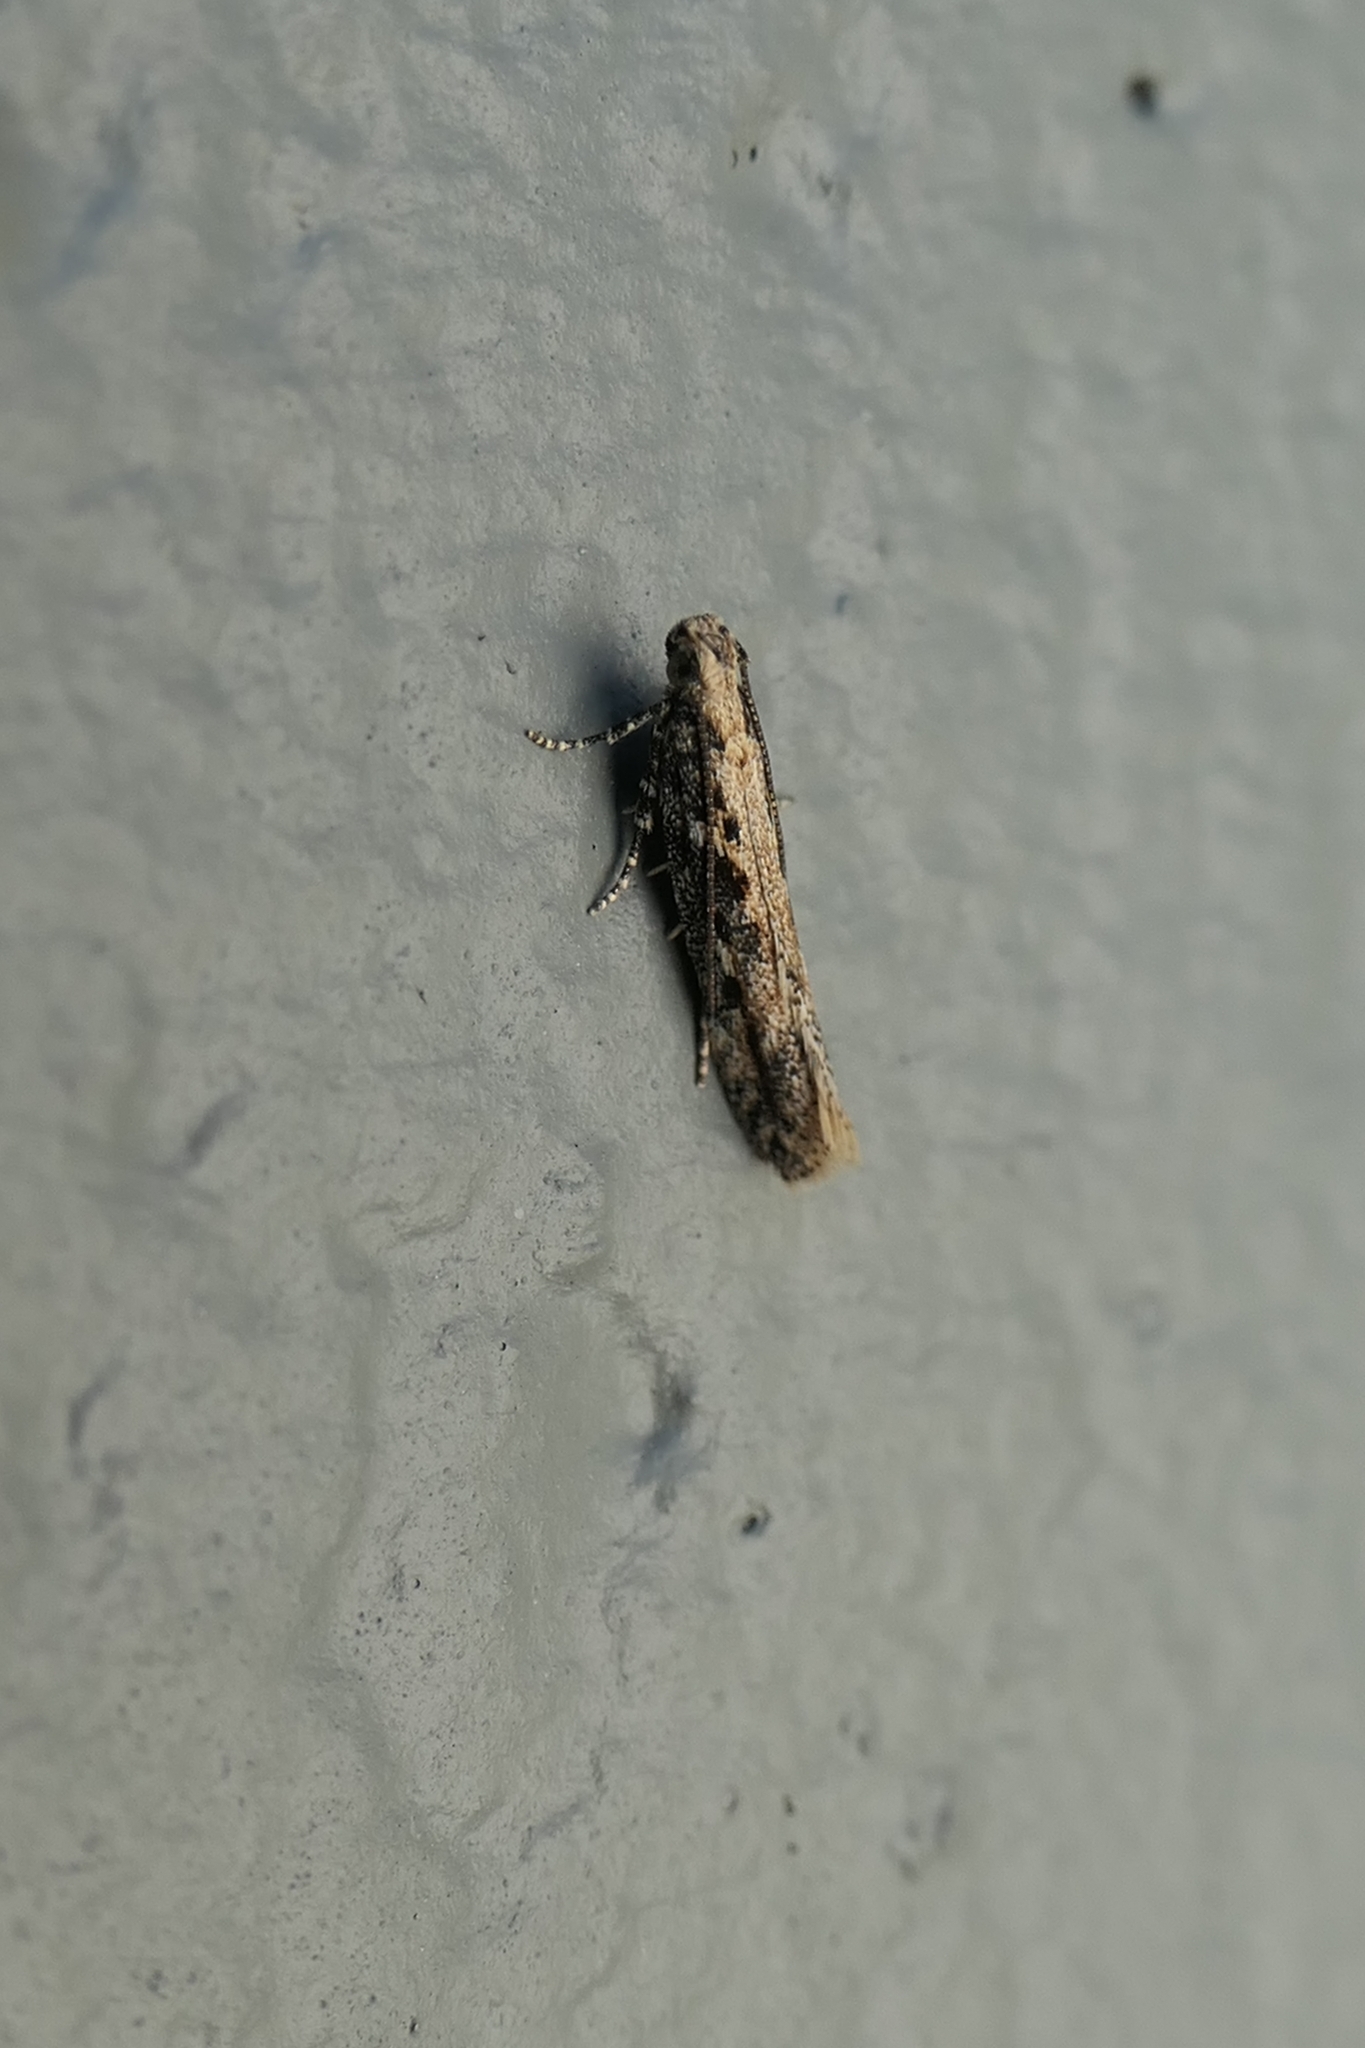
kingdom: Animalia
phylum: Arthropoda
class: Insecta
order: Lepidoptera
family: Gelechiidae
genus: Kiwaia
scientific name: Kiwaia brontophora
